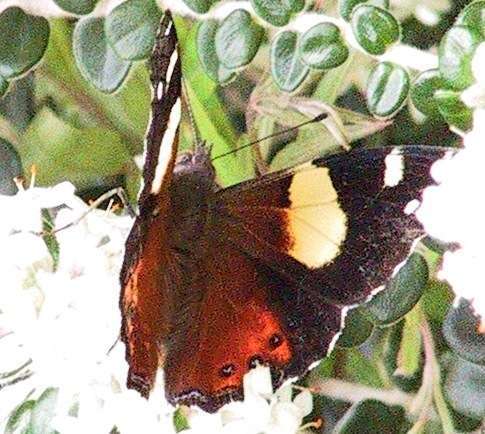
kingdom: Animalia
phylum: Arthropoda
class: Insecta
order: Lepidoptera
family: Nymphalidae
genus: Vanessa
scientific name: Vanessa itea
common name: Yellow admiral
